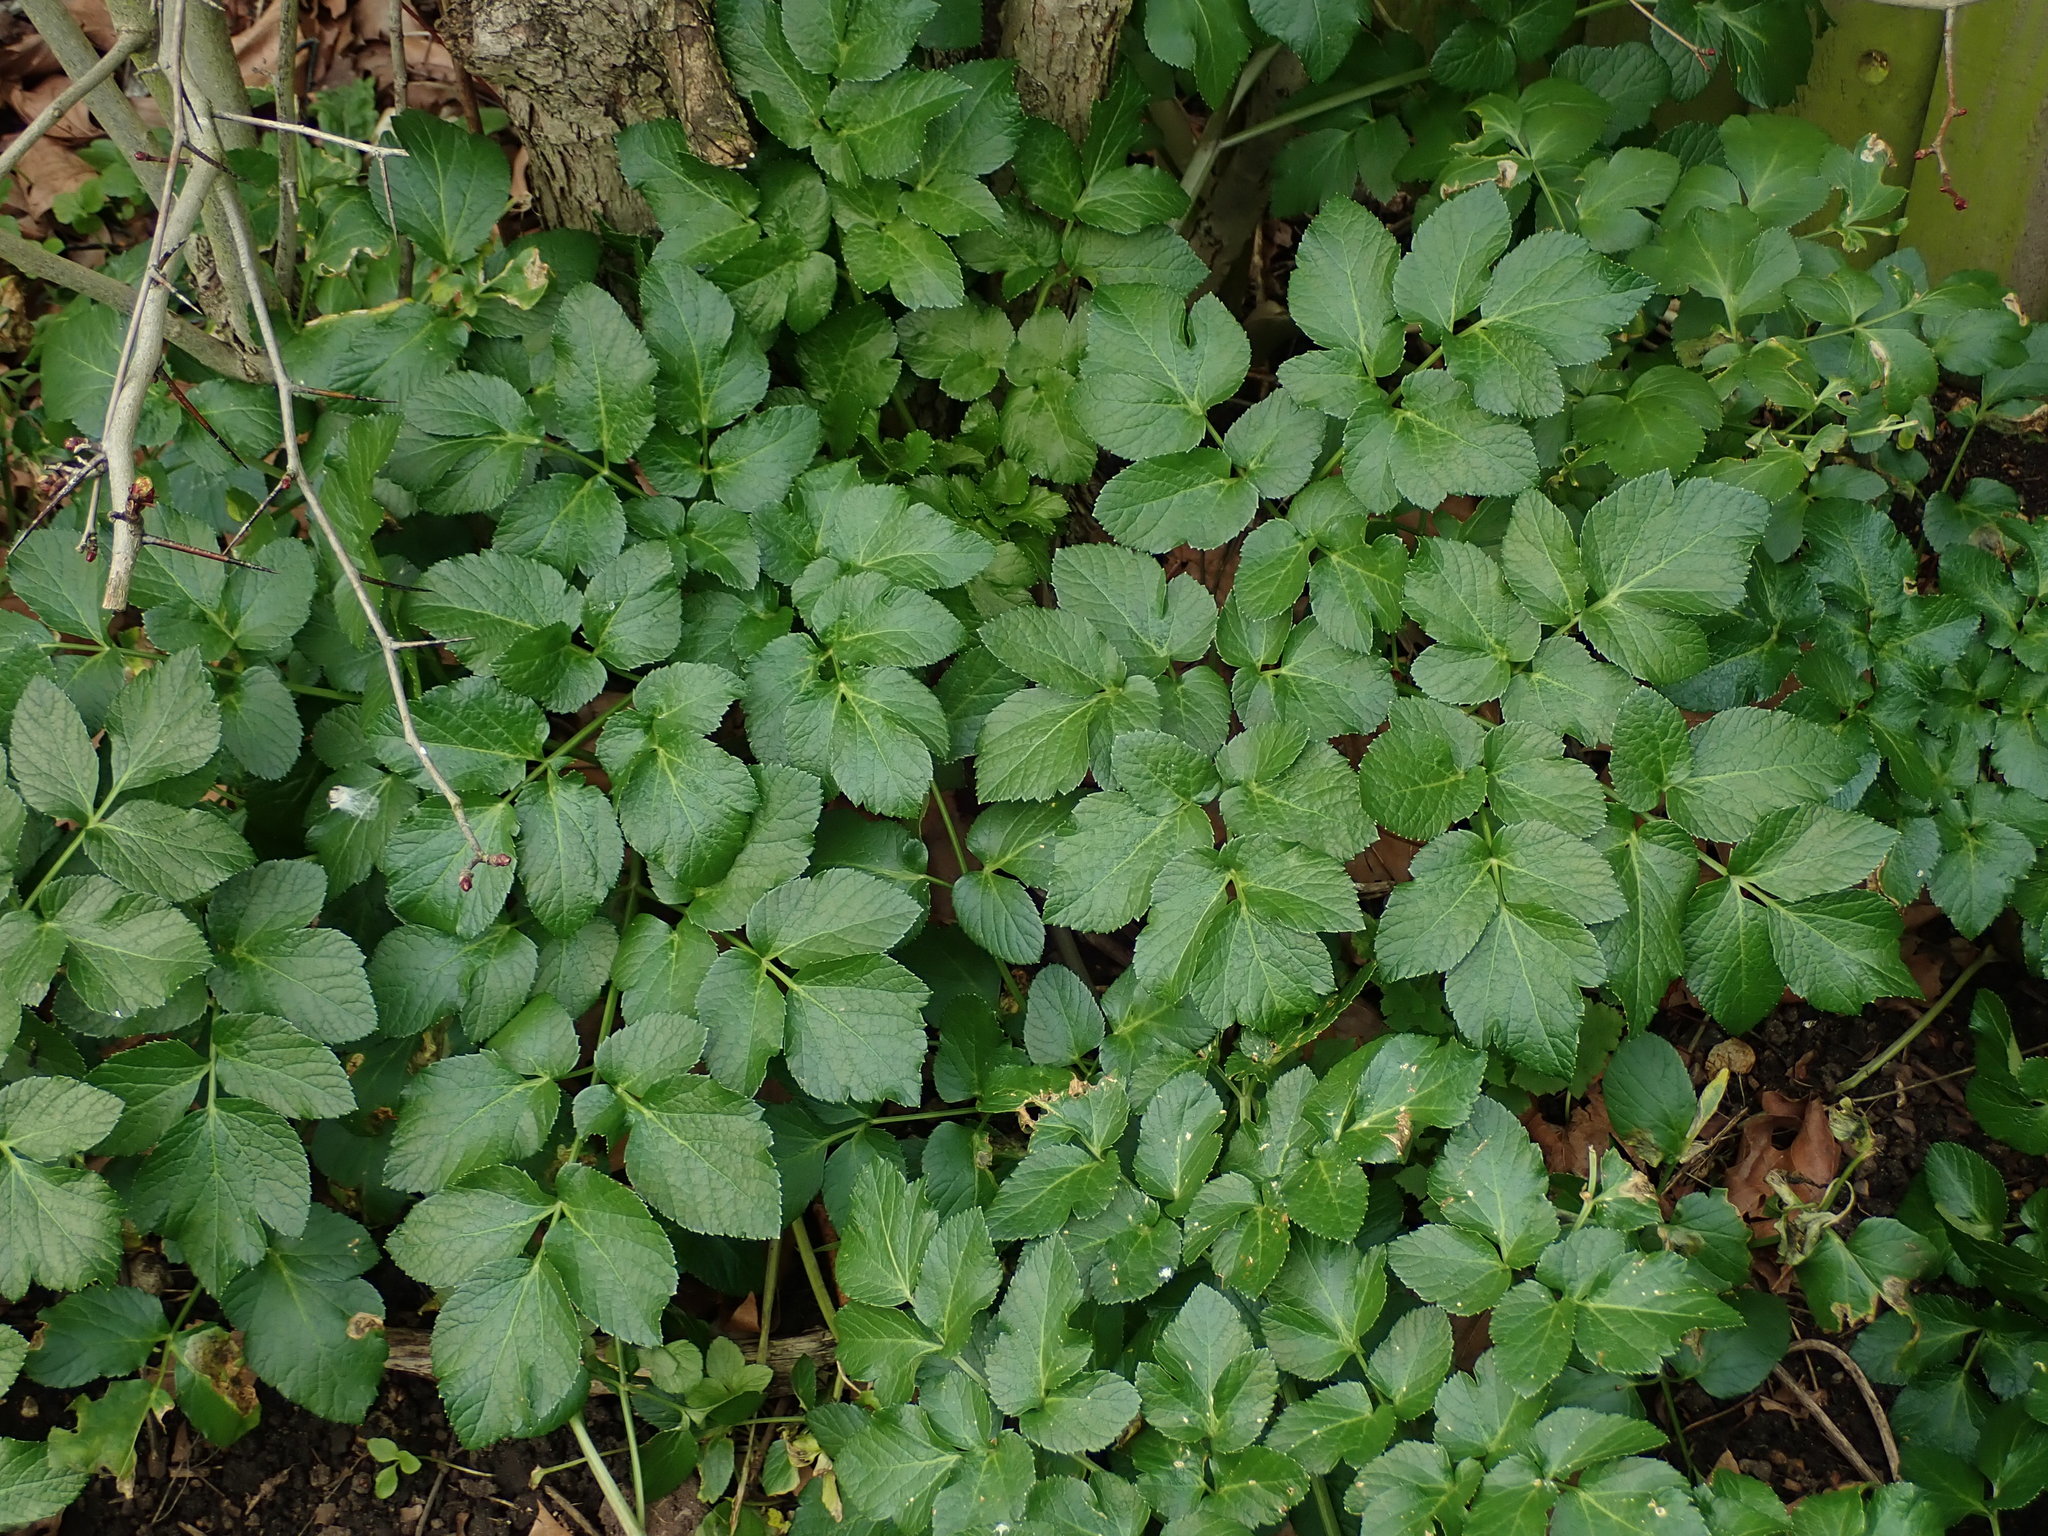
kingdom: Plantae
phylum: Tracheophyta
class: Magnoliopsida
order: Apiales
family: Apiaceae
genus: Smyrnium
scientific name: Smyrnium olusatrum
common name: Alexanders
